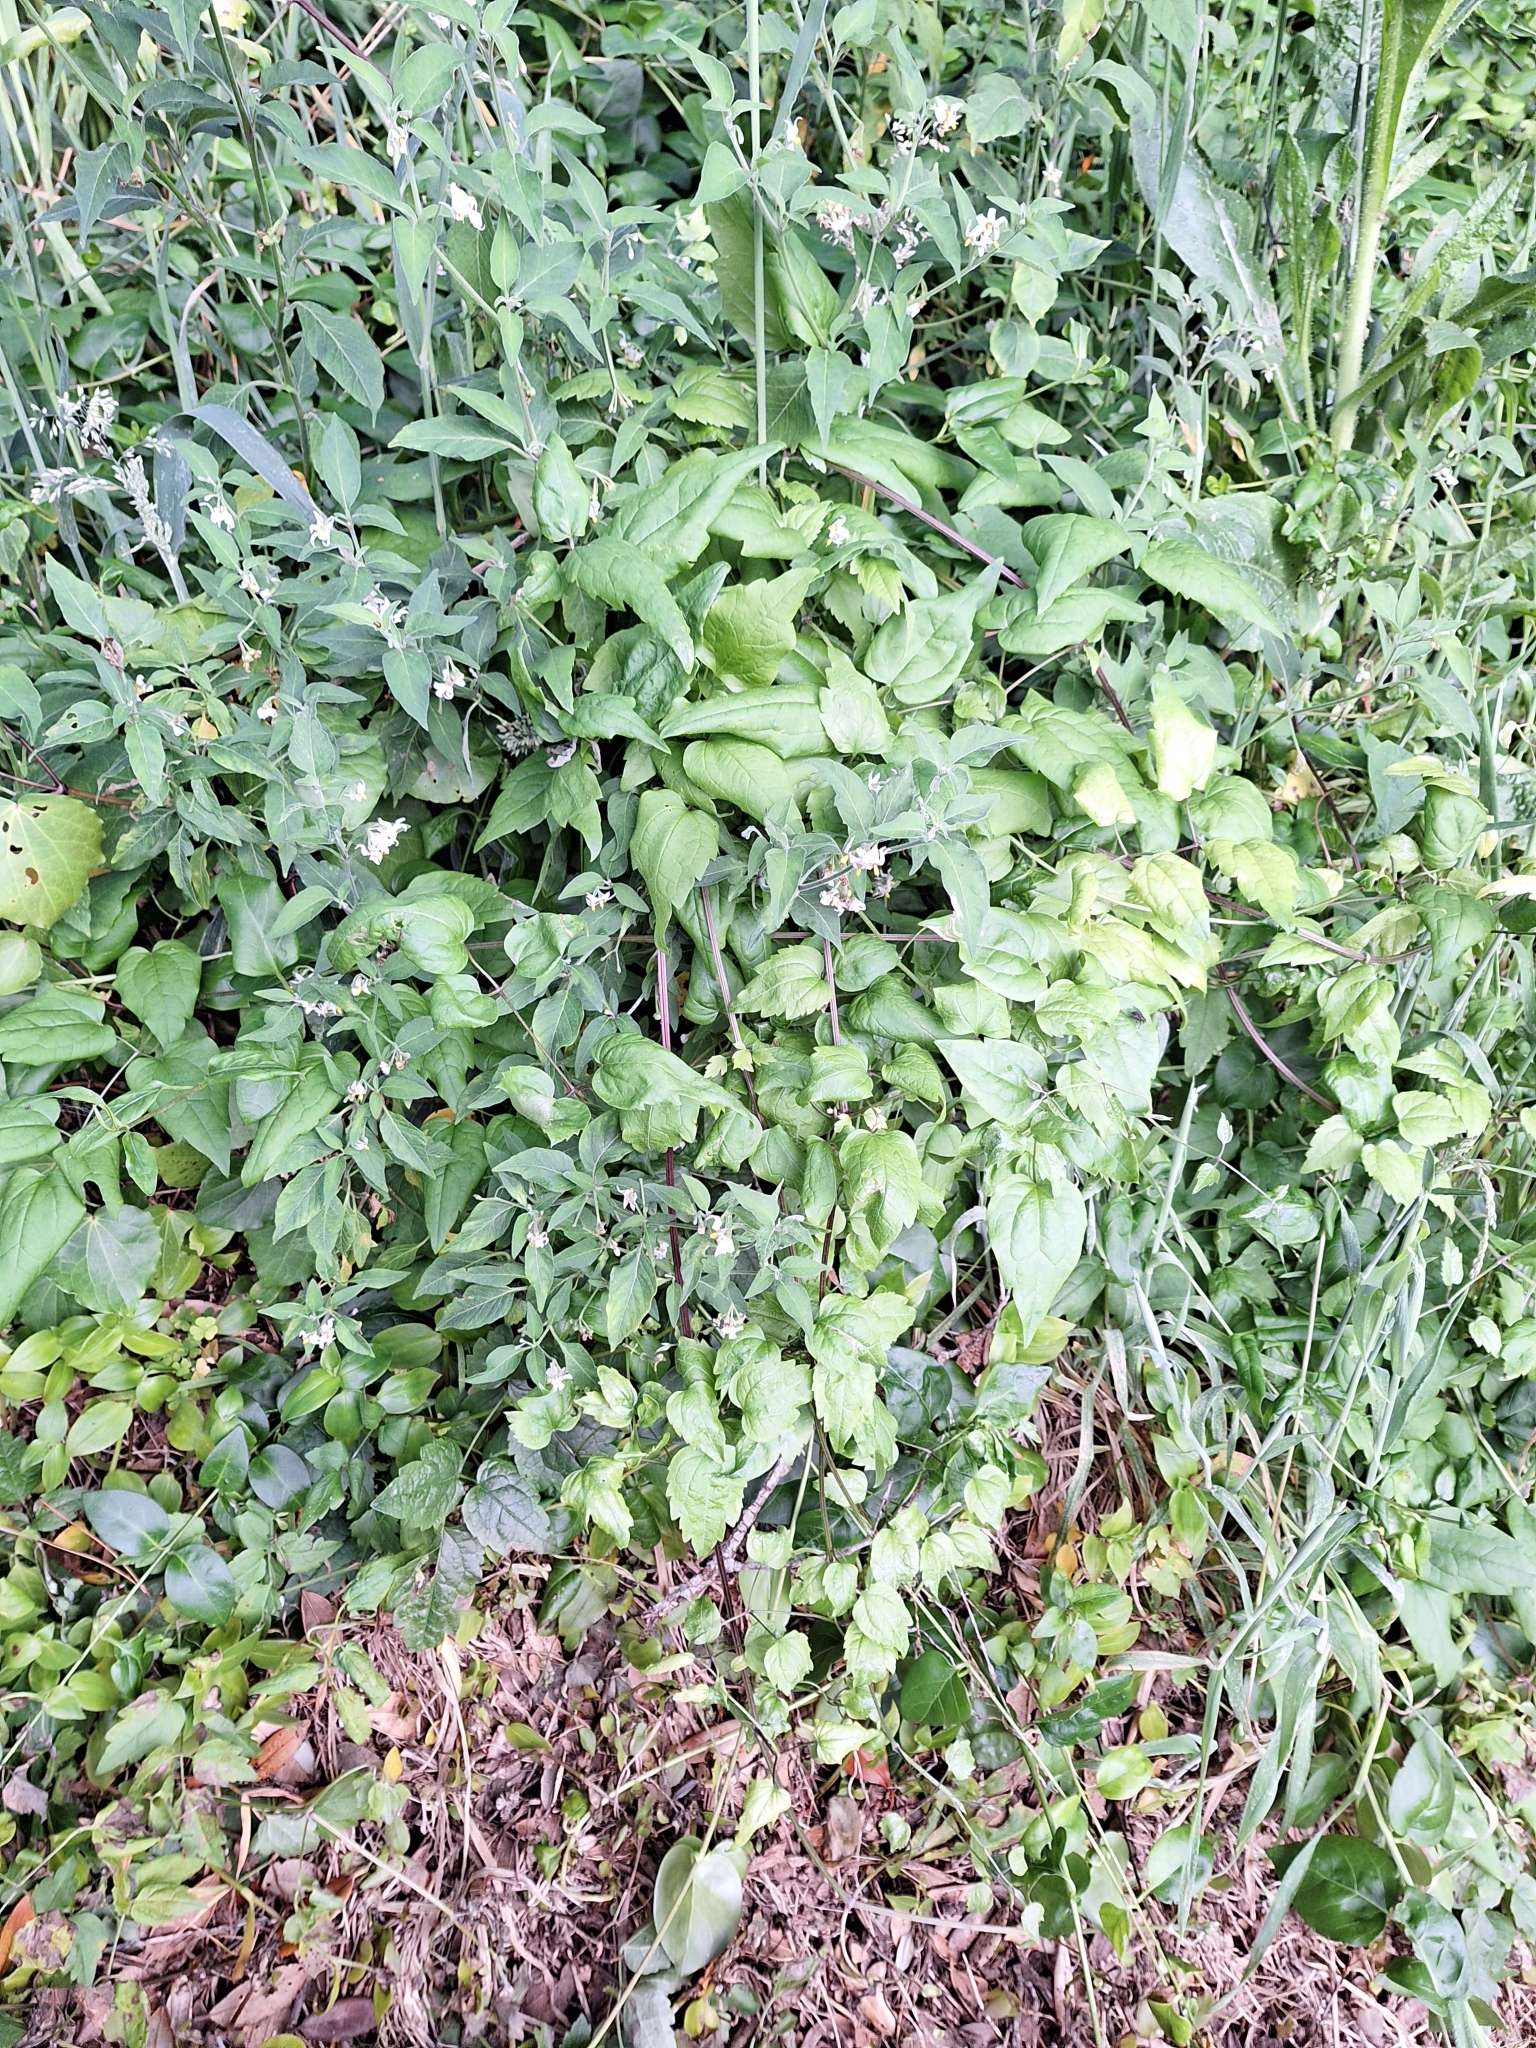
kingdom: Plantae
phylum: Tracheophyta
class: Magnoliopsida
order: Ranunculales
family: Ranunculaceae
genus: Clematis
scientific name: Clematis vitalba
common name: Evergreen clematis
